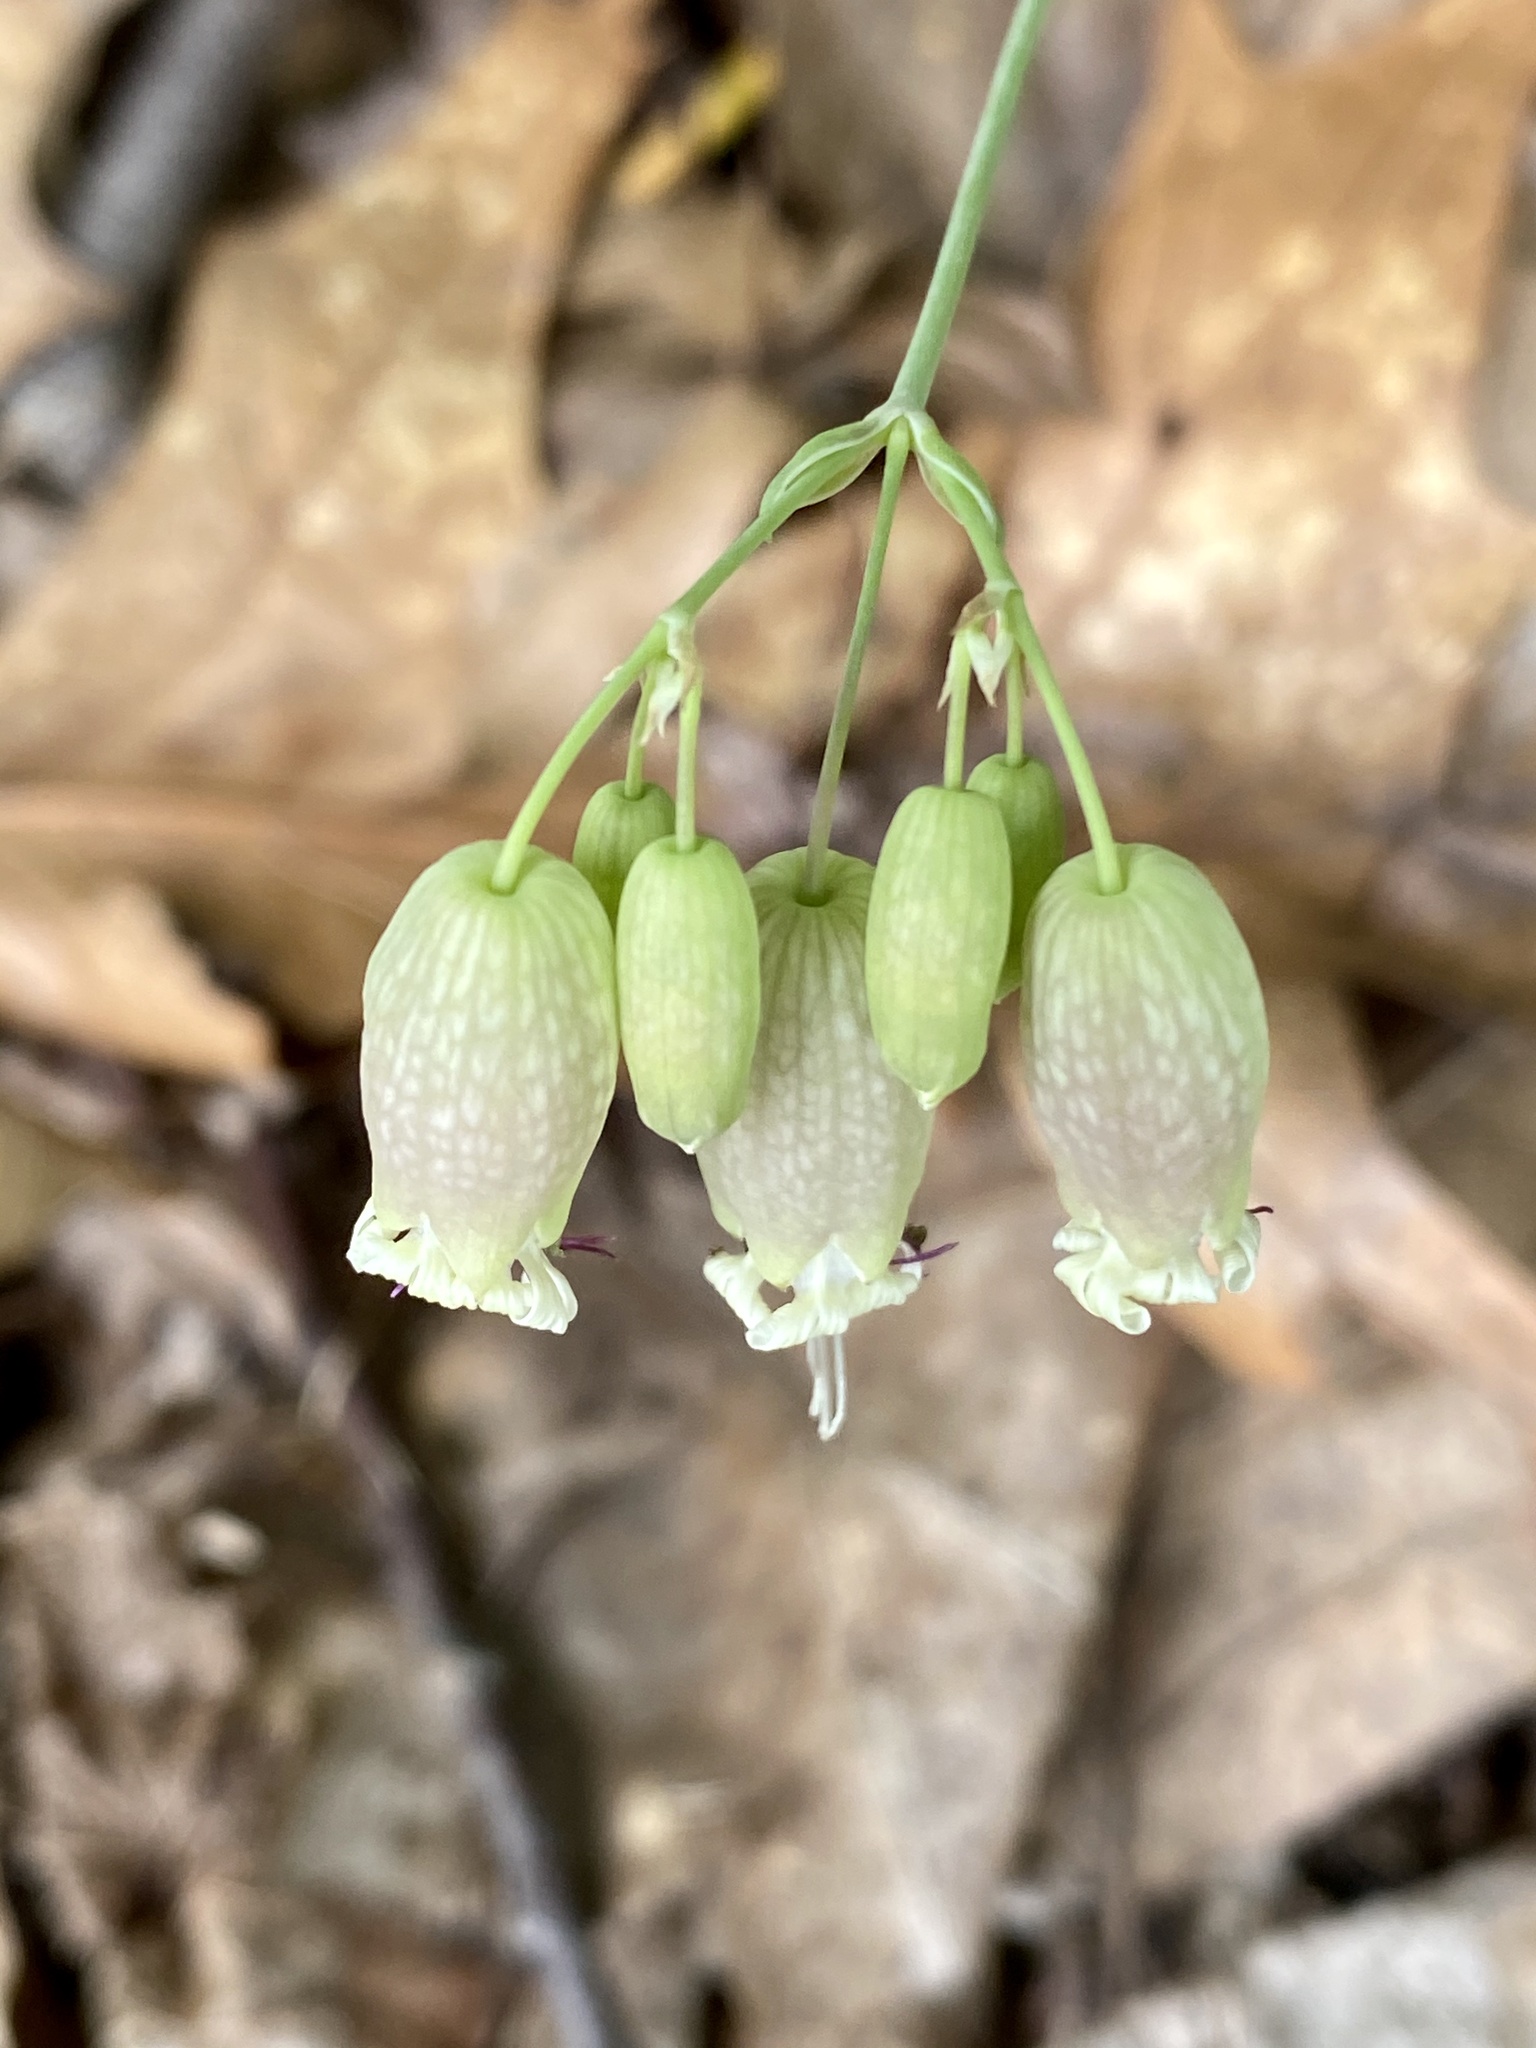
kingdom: Plantae
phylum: Tracheophyta
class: Magnoliopsida
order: Caryophyllales
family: Caryophyllaceae
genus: Silene
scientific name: Silene vulgaris
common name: Bladder campion
